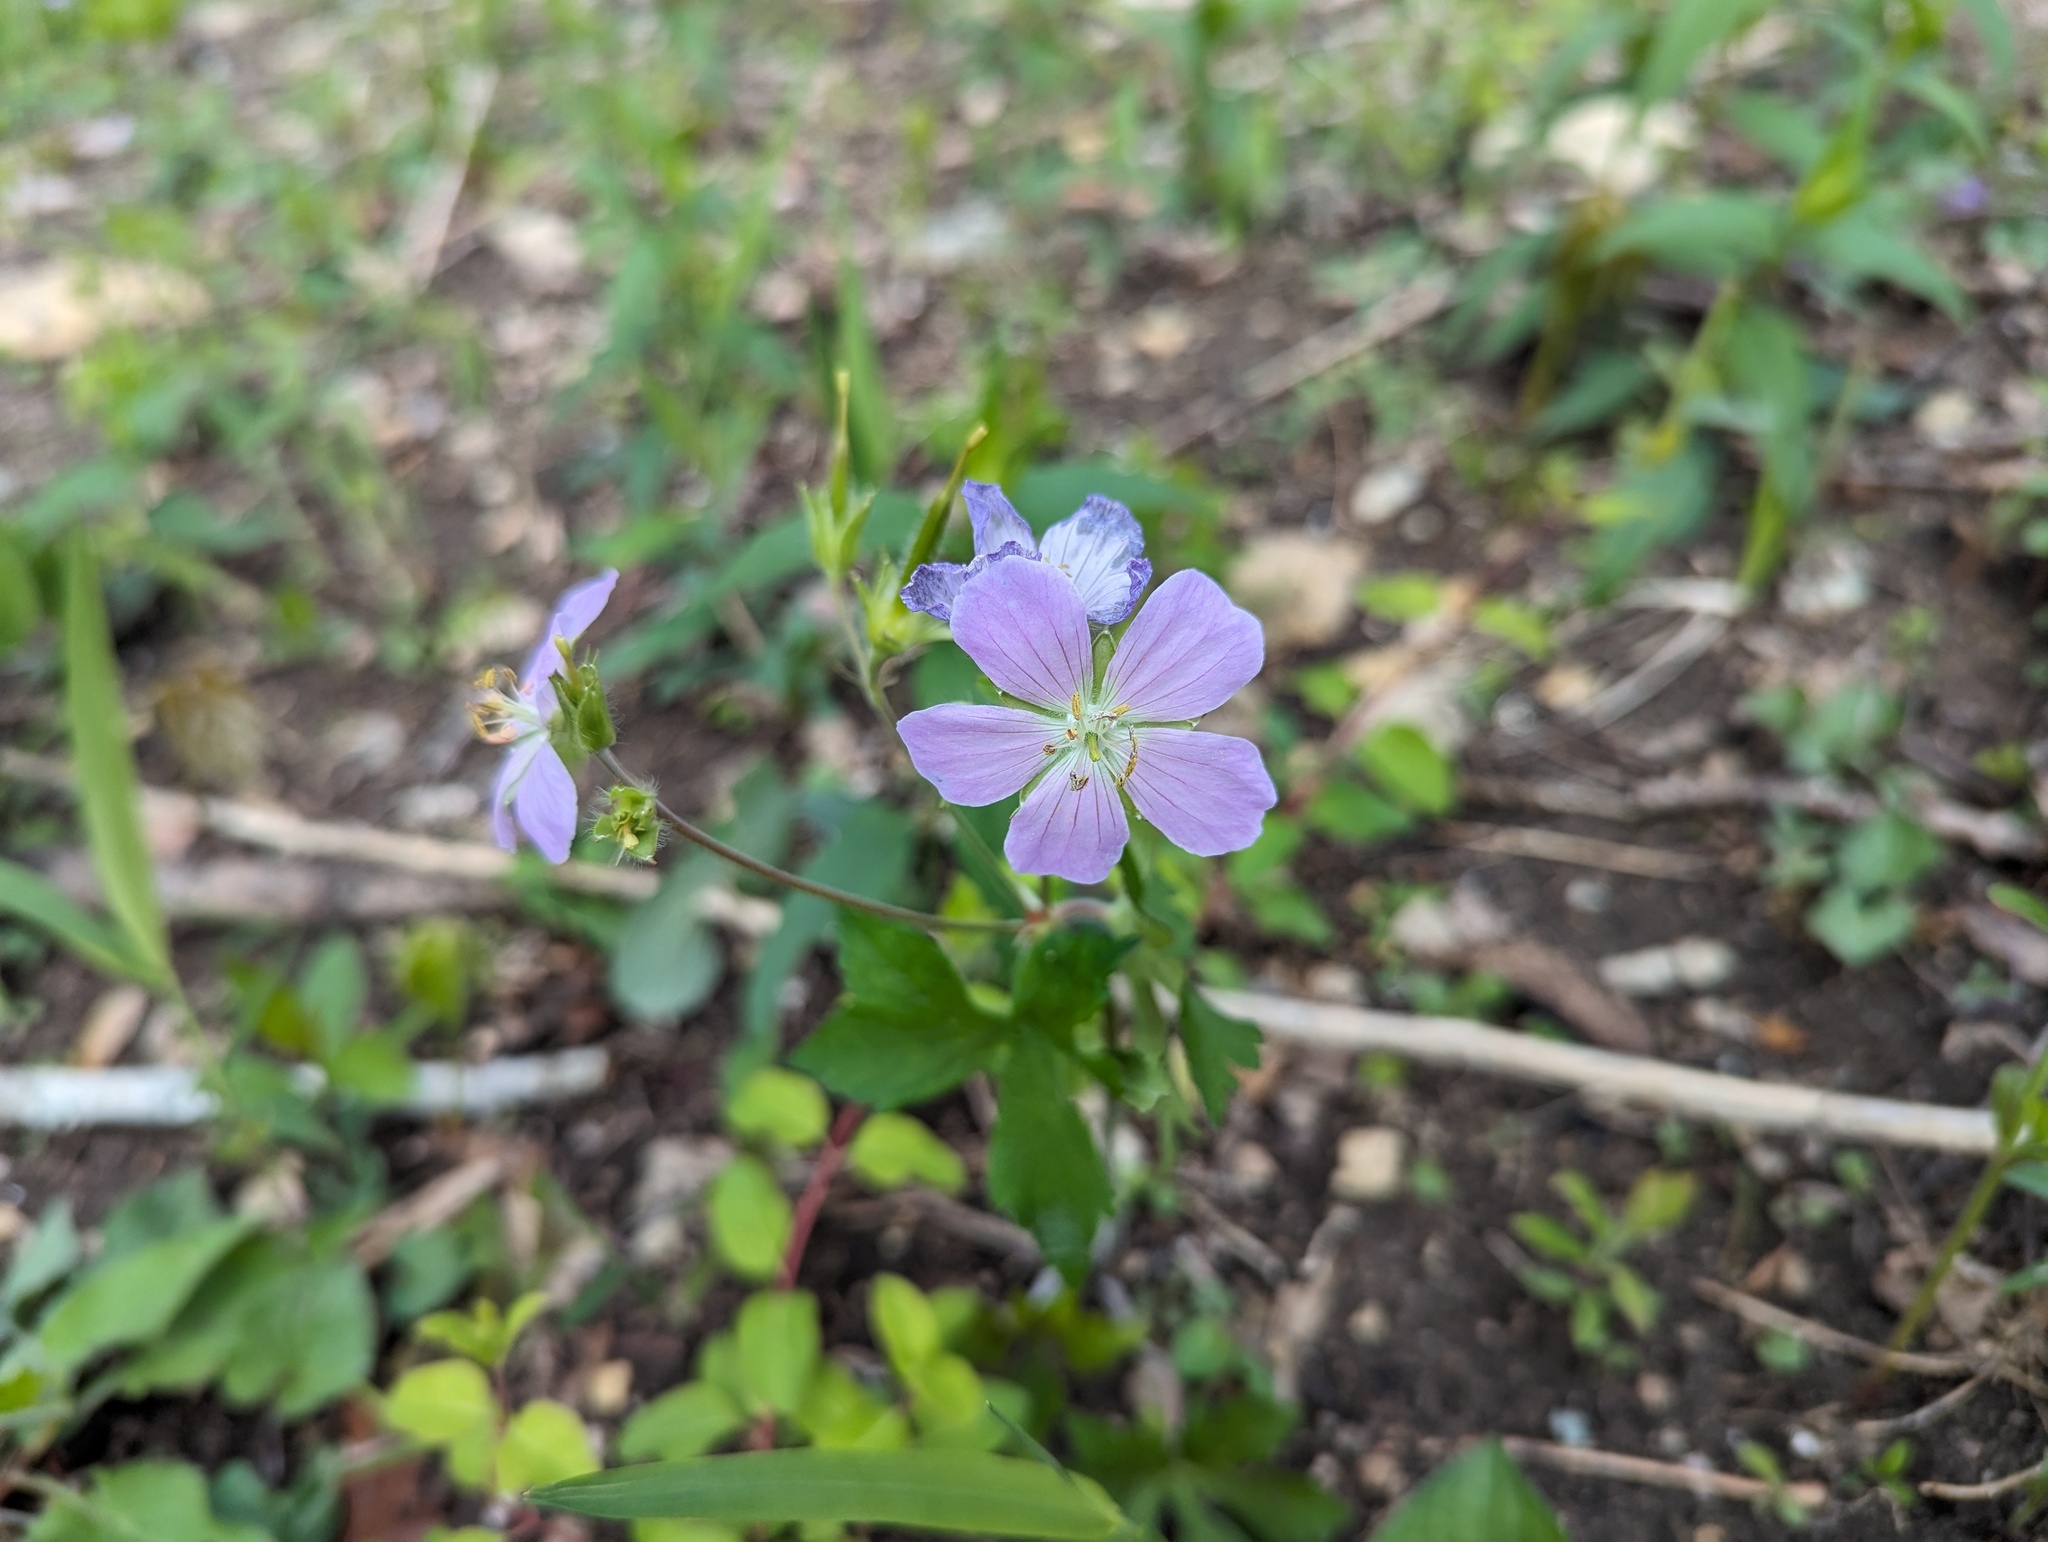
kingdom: Plantae
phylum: Tracheophyta
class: Magnoliopsida
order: Geraniales
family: Geraniaceae
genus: Geranium
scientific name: Geranium maculatum
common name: Spotted geranium
